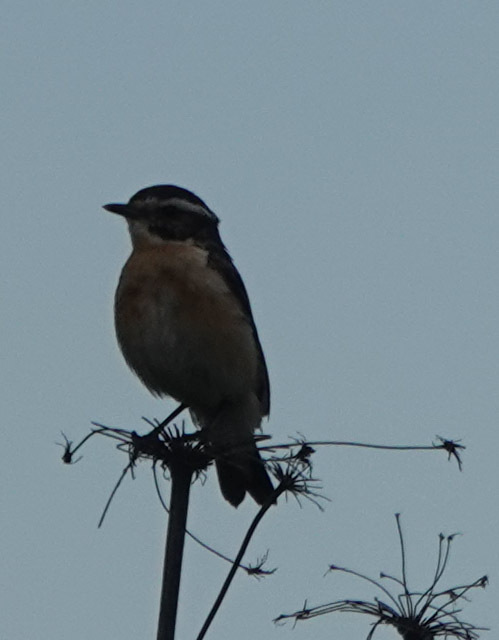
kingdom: Animalia
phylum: Chordata
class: Aves
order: Passeriformes
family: Muscicapidae
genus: Saxicola
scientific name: Saxicola rubetra
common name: Whinchat
